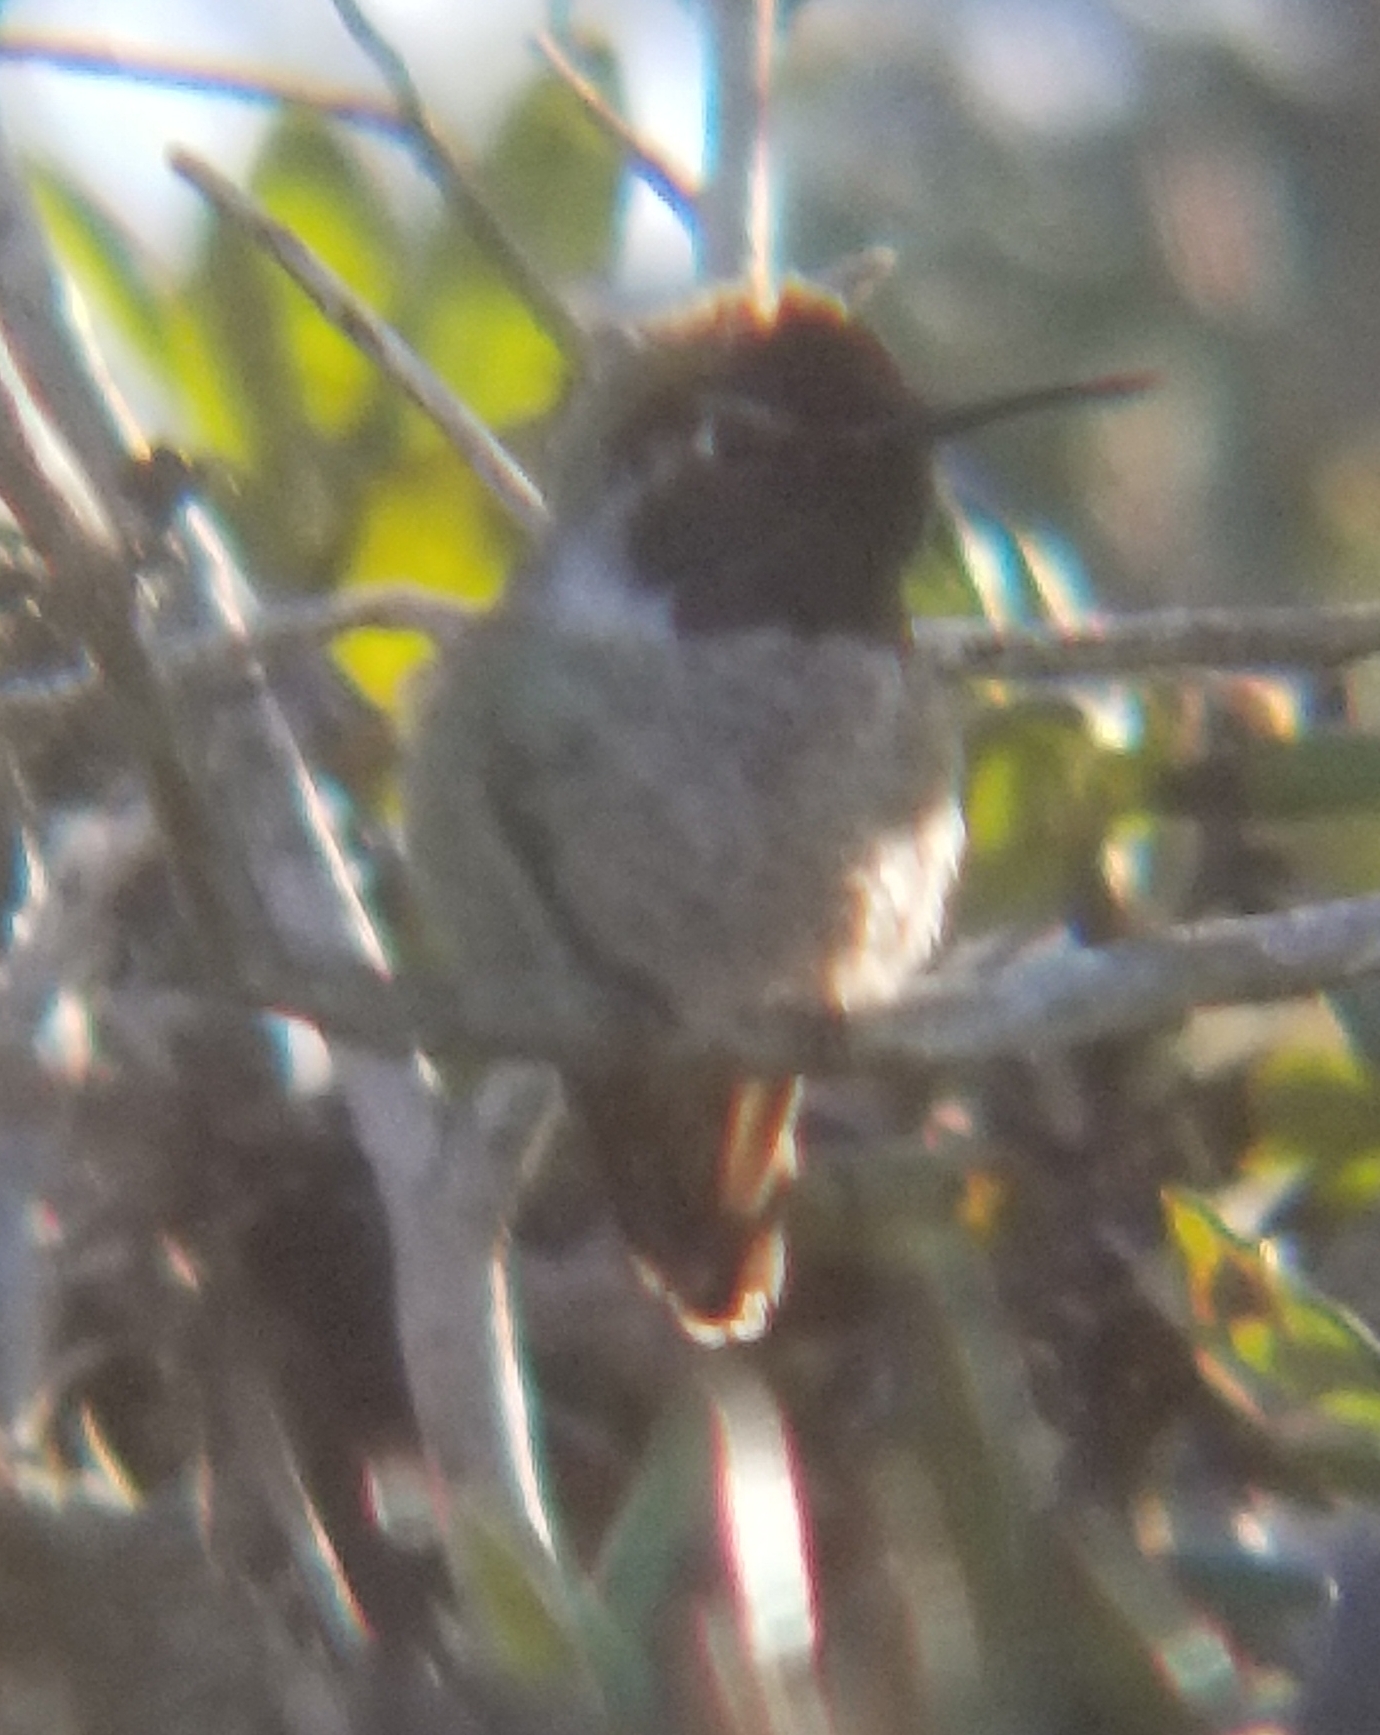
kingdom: Animalia
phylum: Chordata
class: Aves
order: Apodiformes
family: Trochilidae
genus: Calypte
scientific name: Calypte anna
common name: Anna's hummingbird
